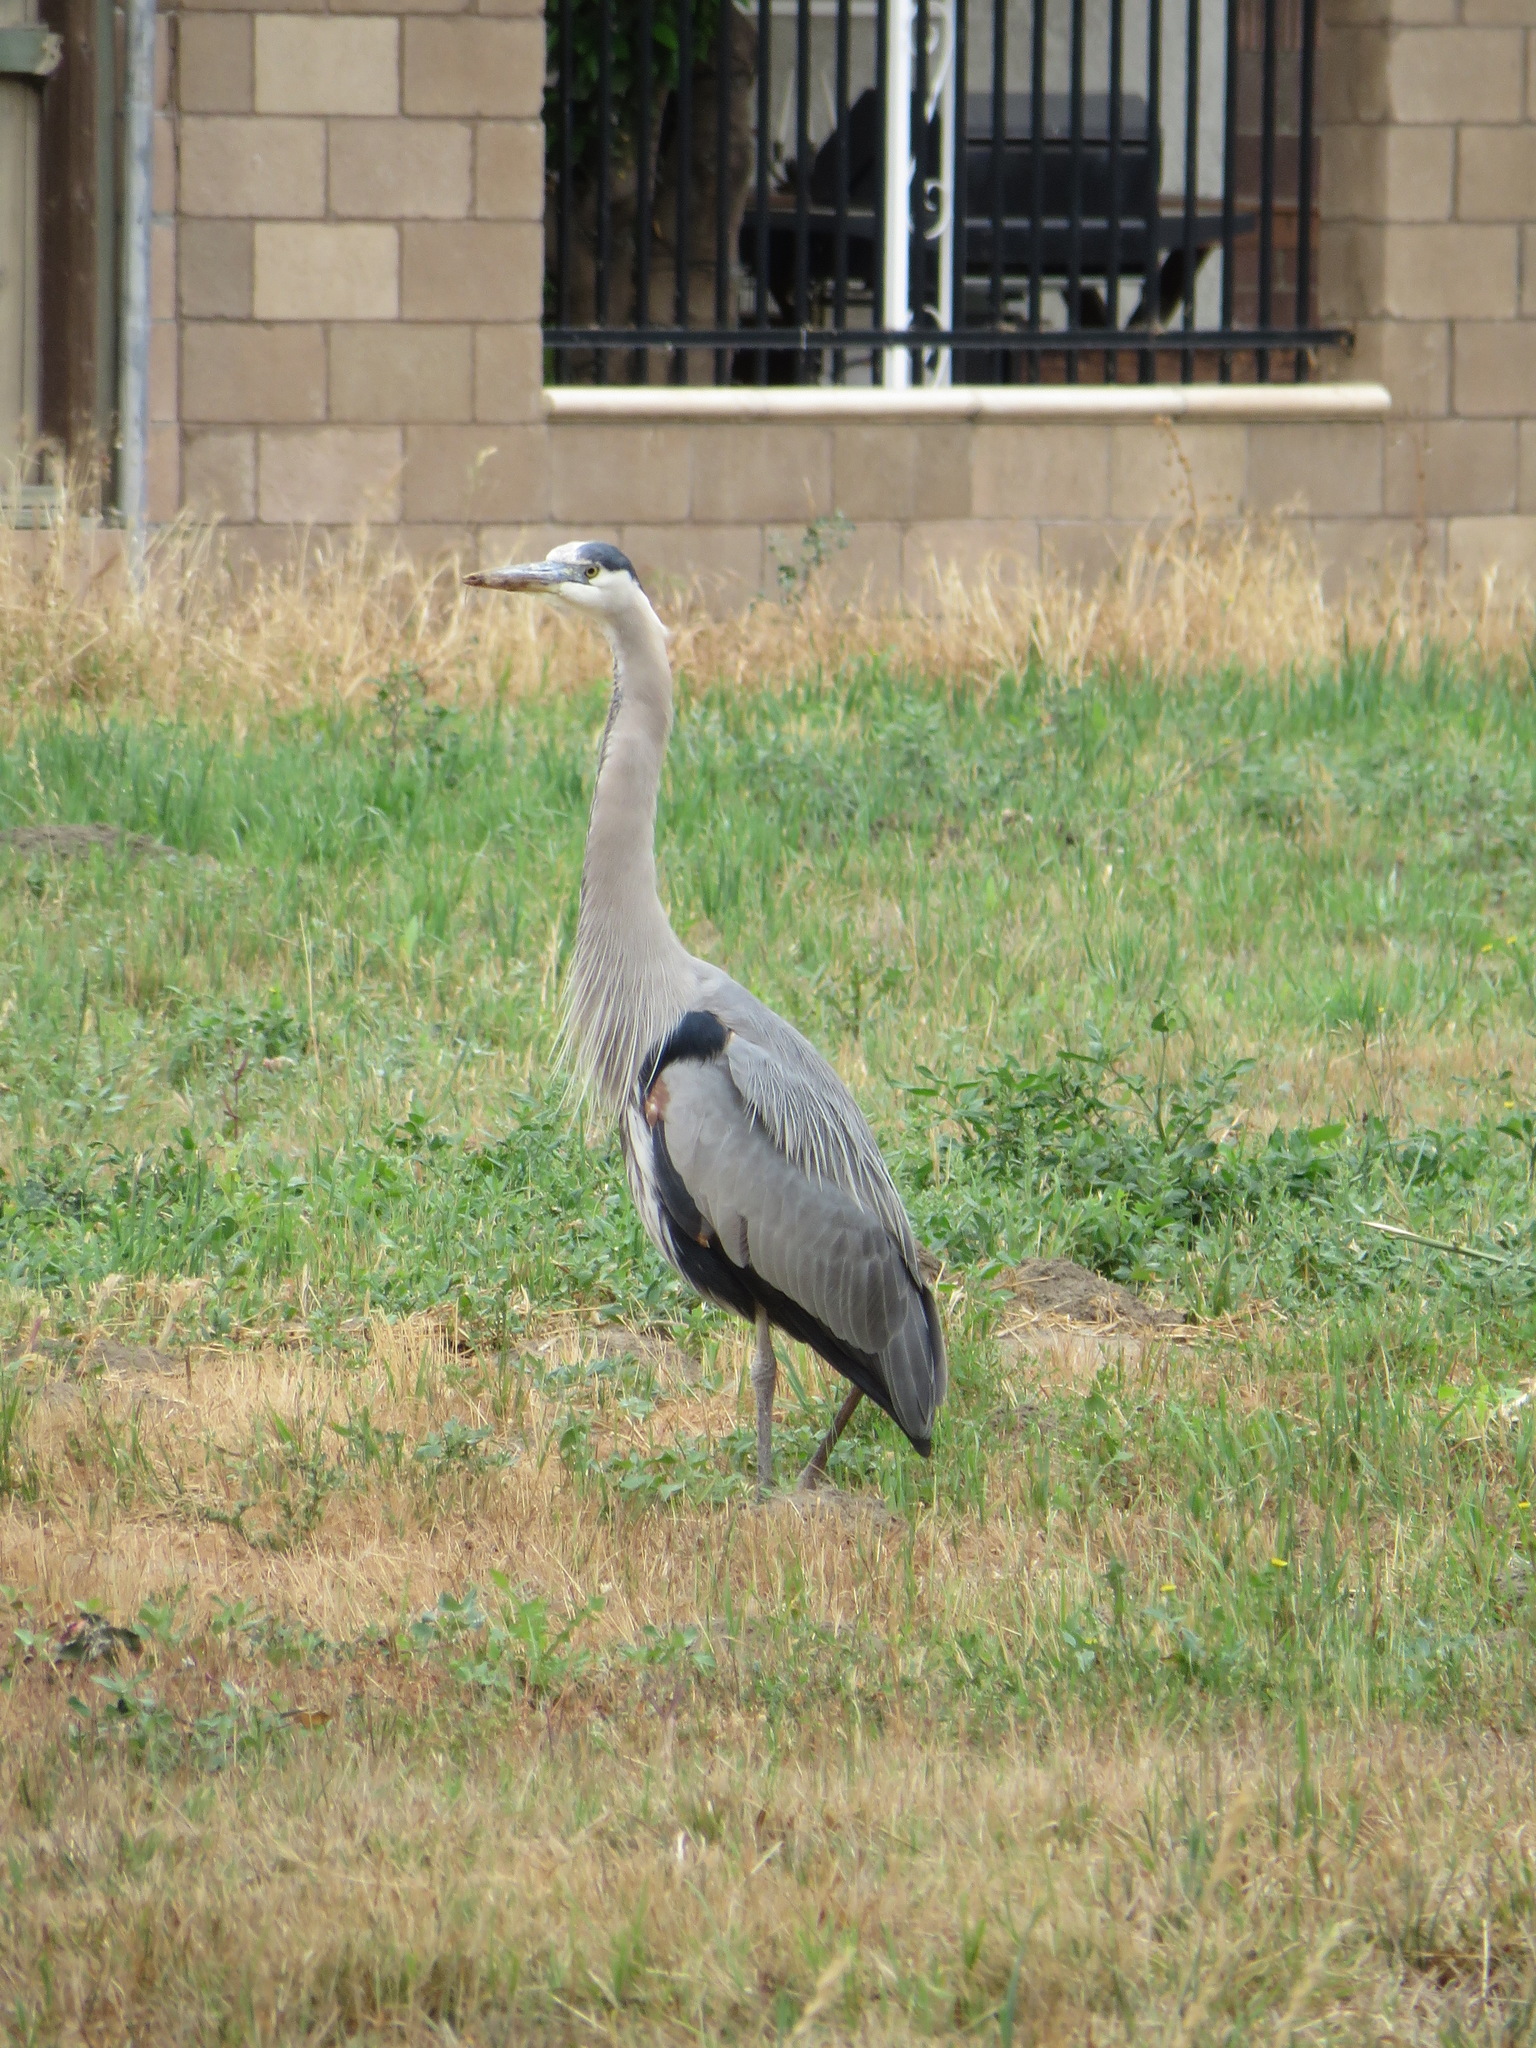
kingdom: Animalia
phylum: Chordata
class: Aves
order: Pelecaniformes
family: Ardeidae
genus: Ardea
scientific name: Ardea herodias
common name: Great blue heron
